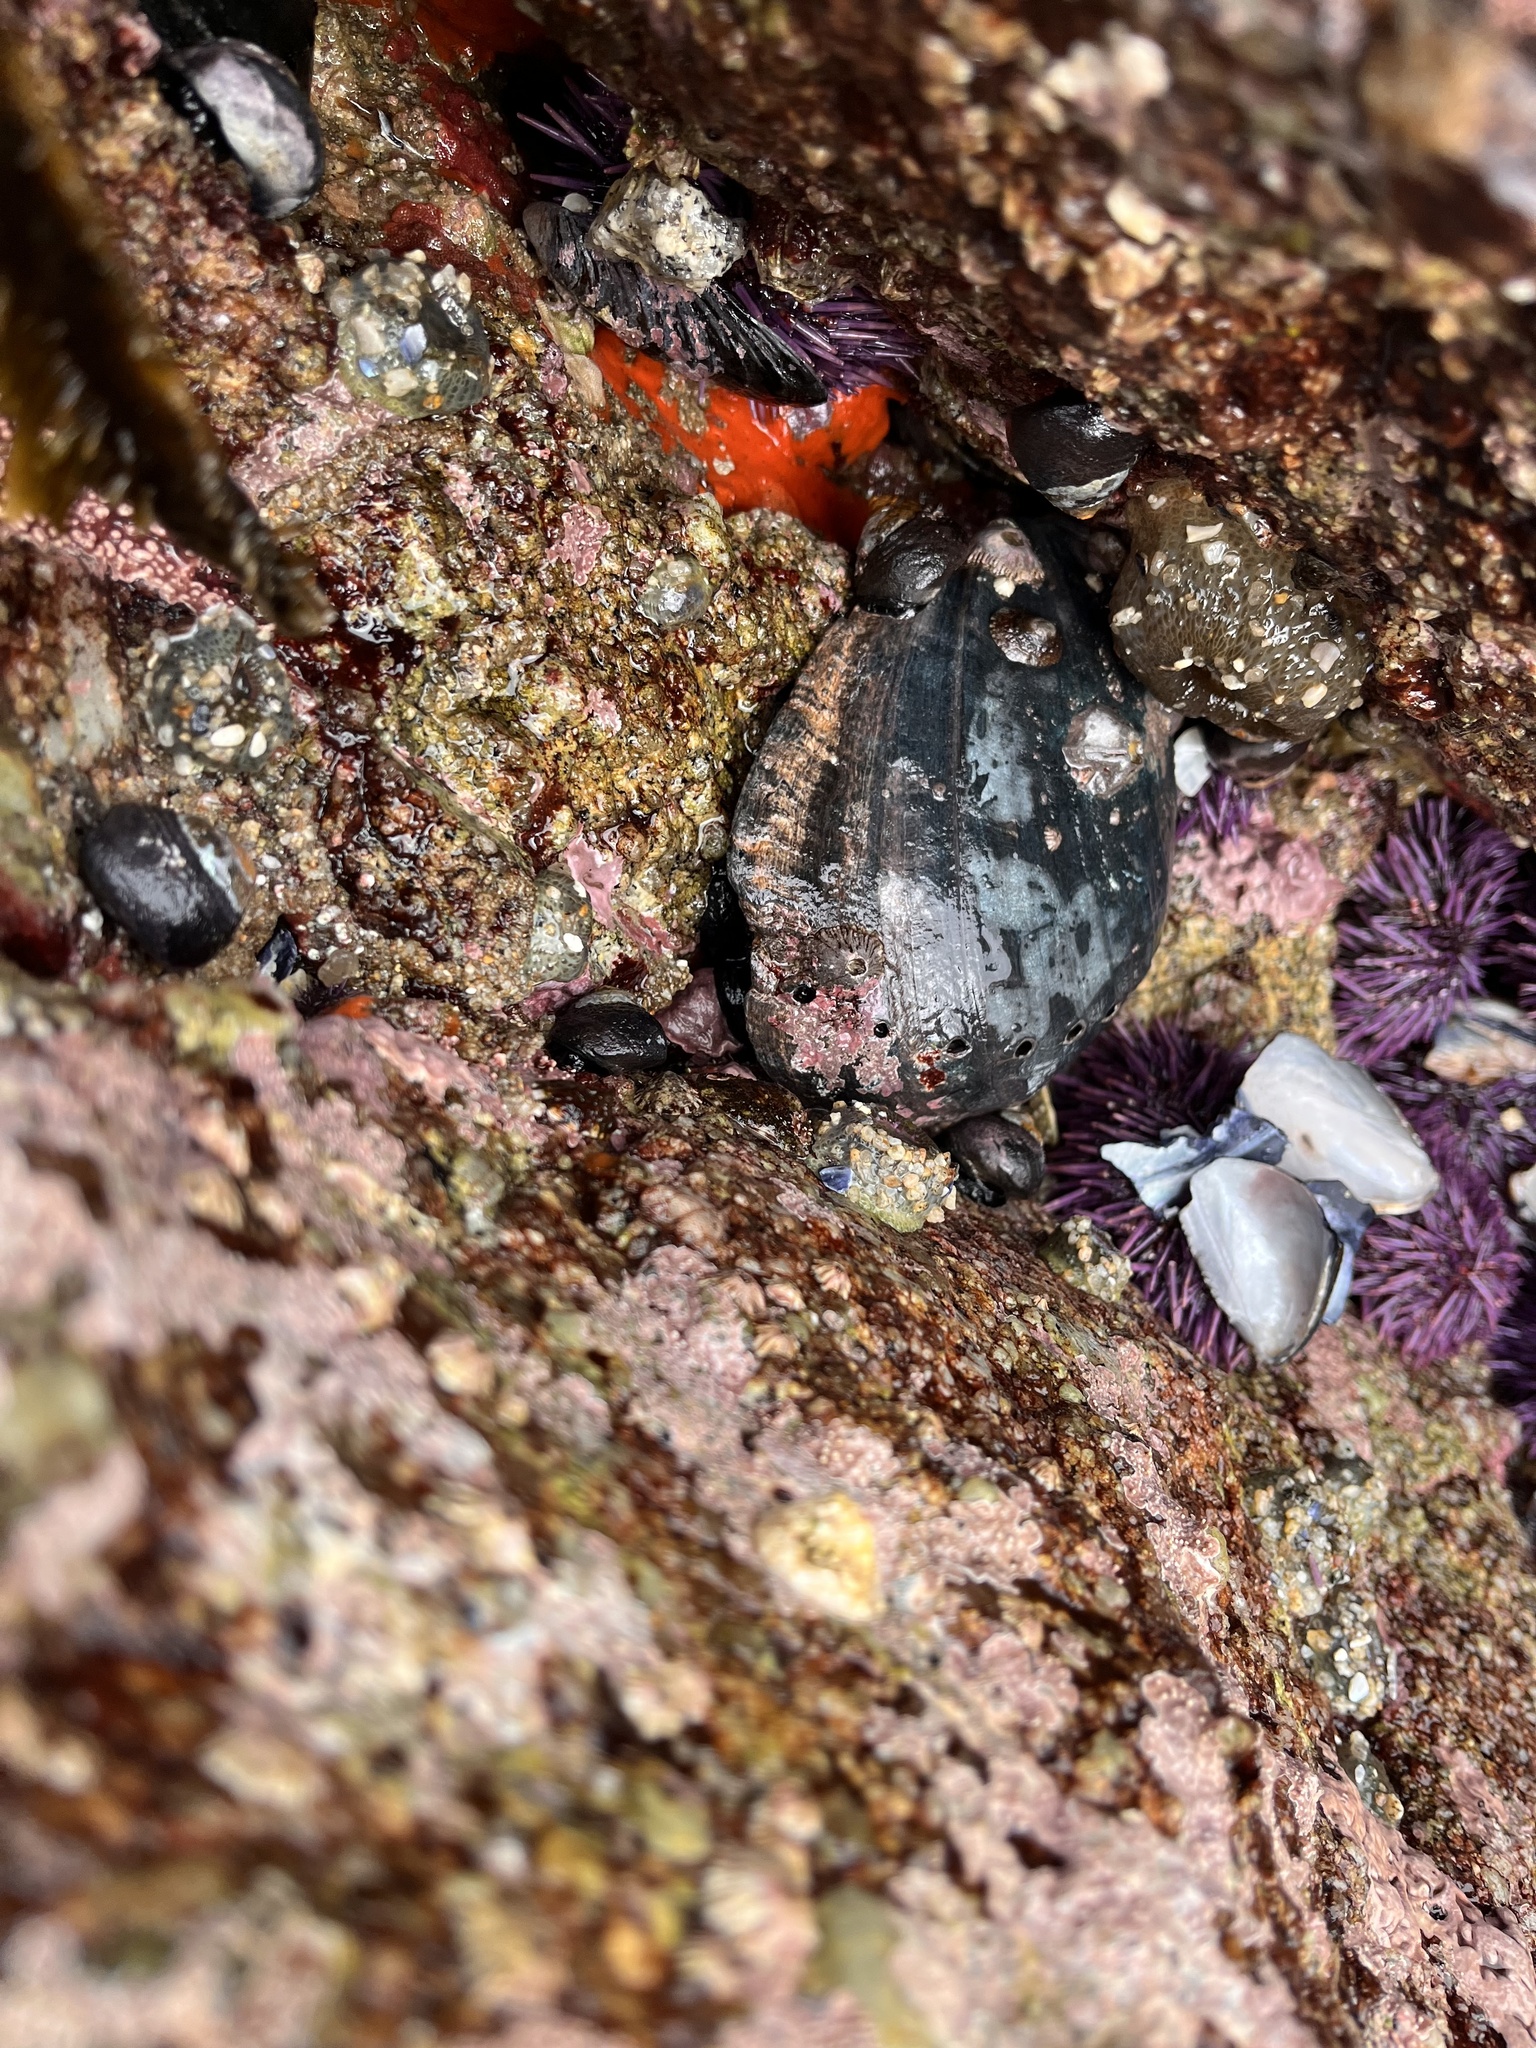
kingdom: Animalia
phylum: Mollusca
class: Gastropoda
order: Lepetellida
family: Haliotidae
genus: Haliotis
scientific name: Haliotis cracherodii
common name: Black abalone
